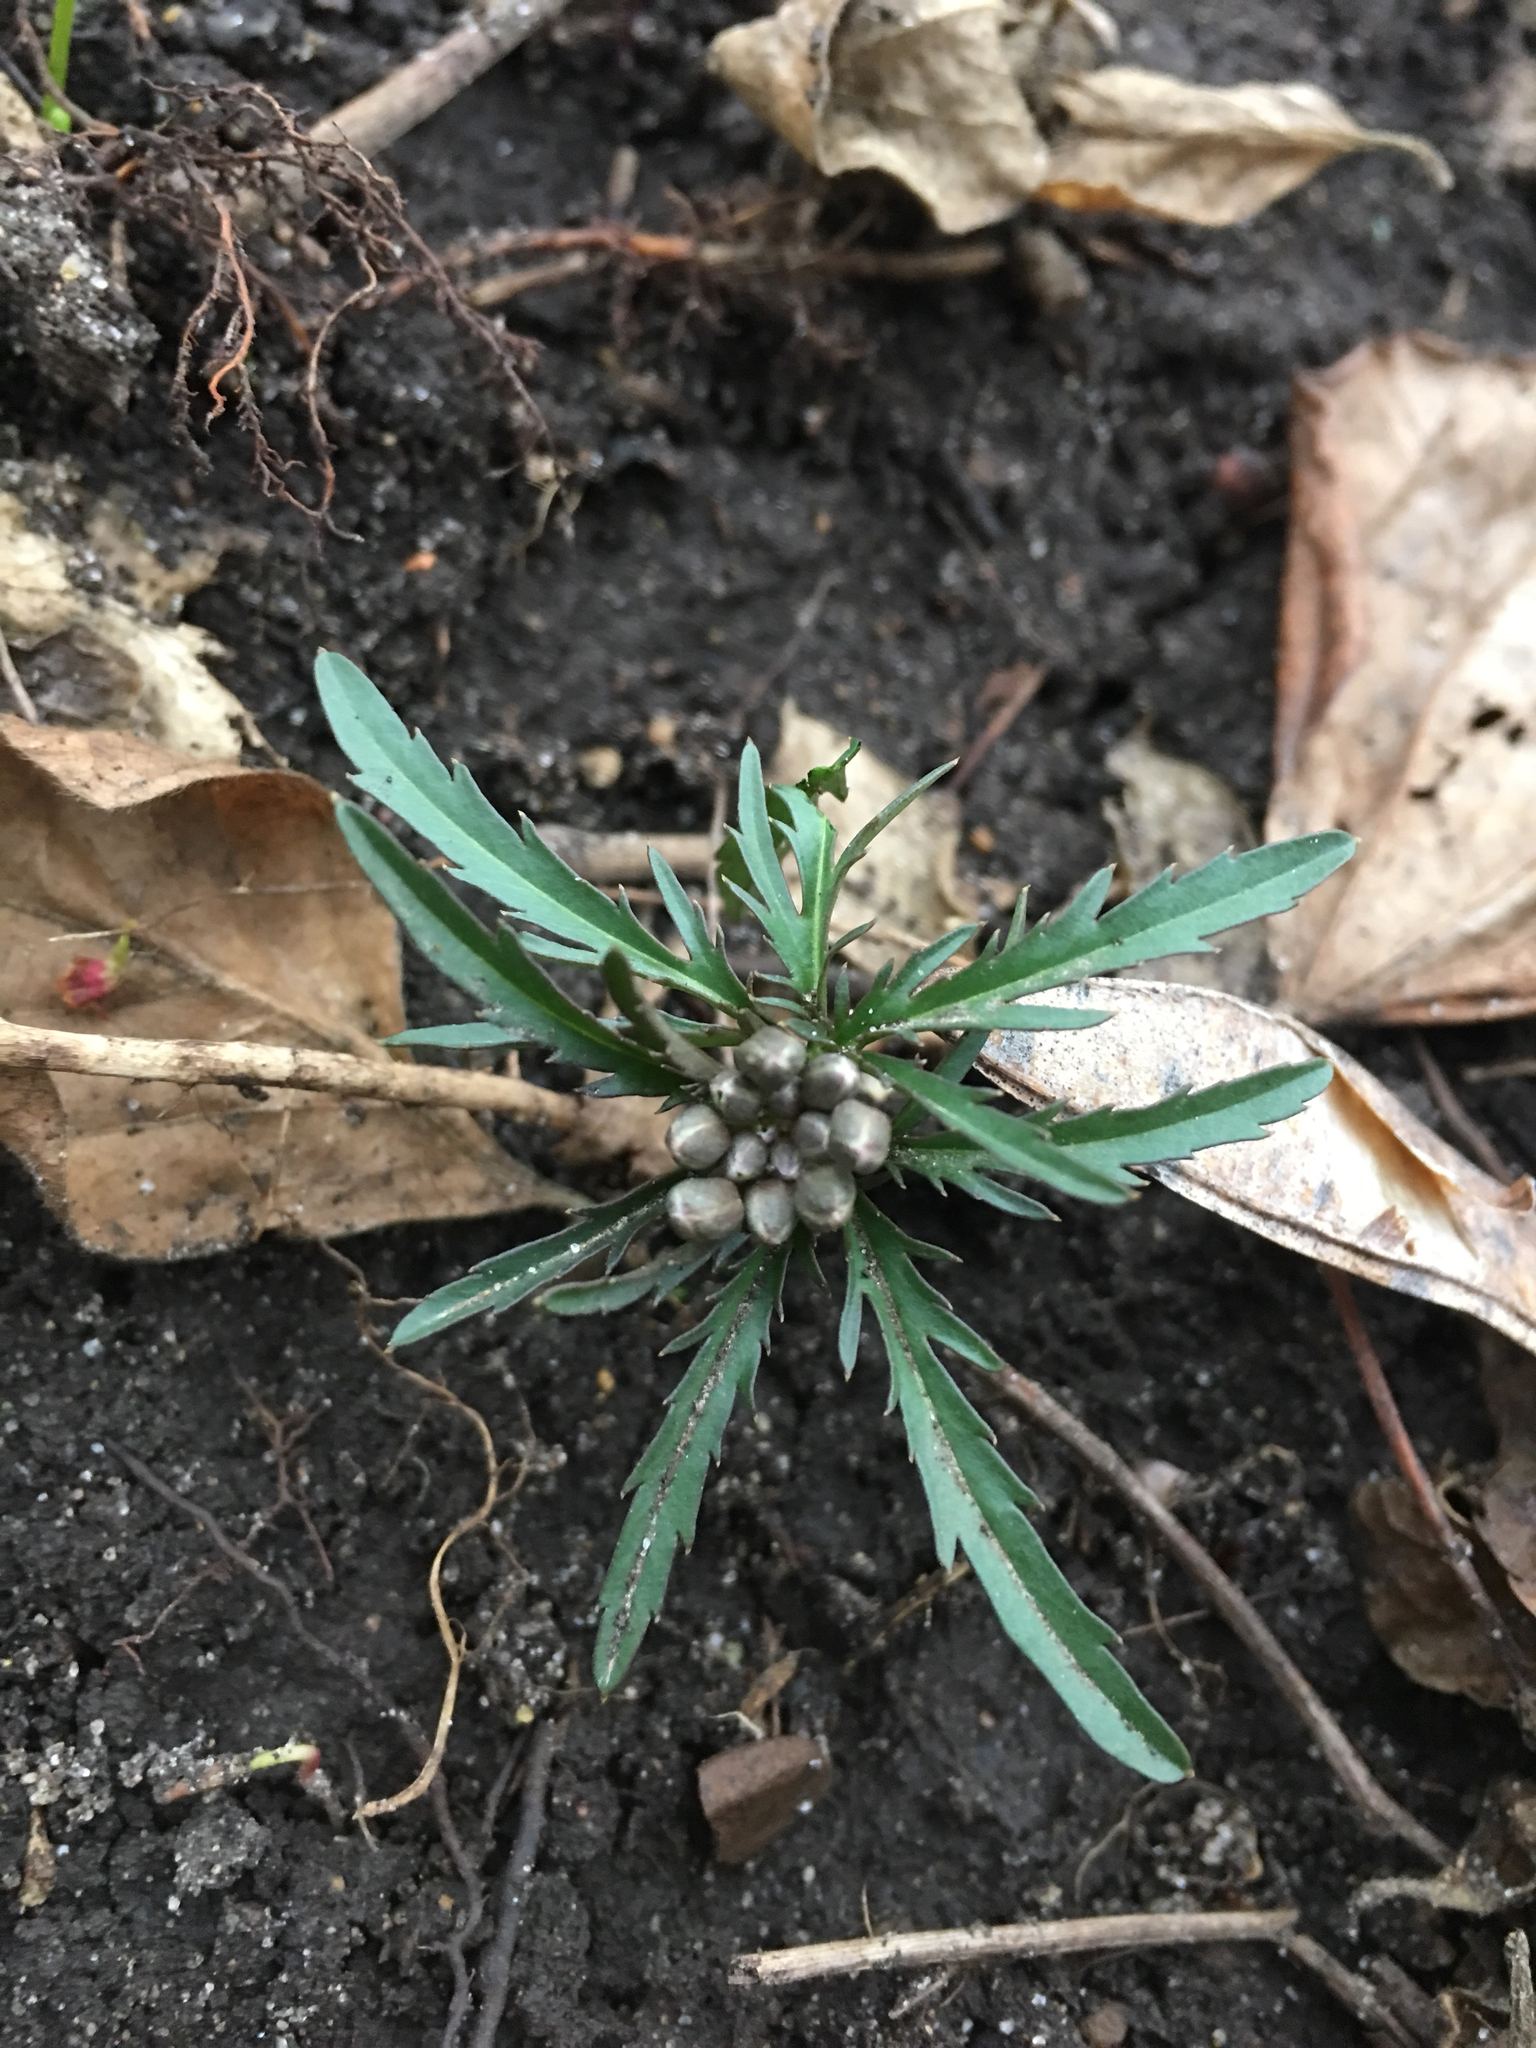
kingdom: Plantae
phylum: Tracheophyta
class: Magnoliopsida
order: Brassicales
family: Brassicaceae
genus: Cardamine
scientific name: Cardamine concatenata
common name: Cut-leaf toothcup
